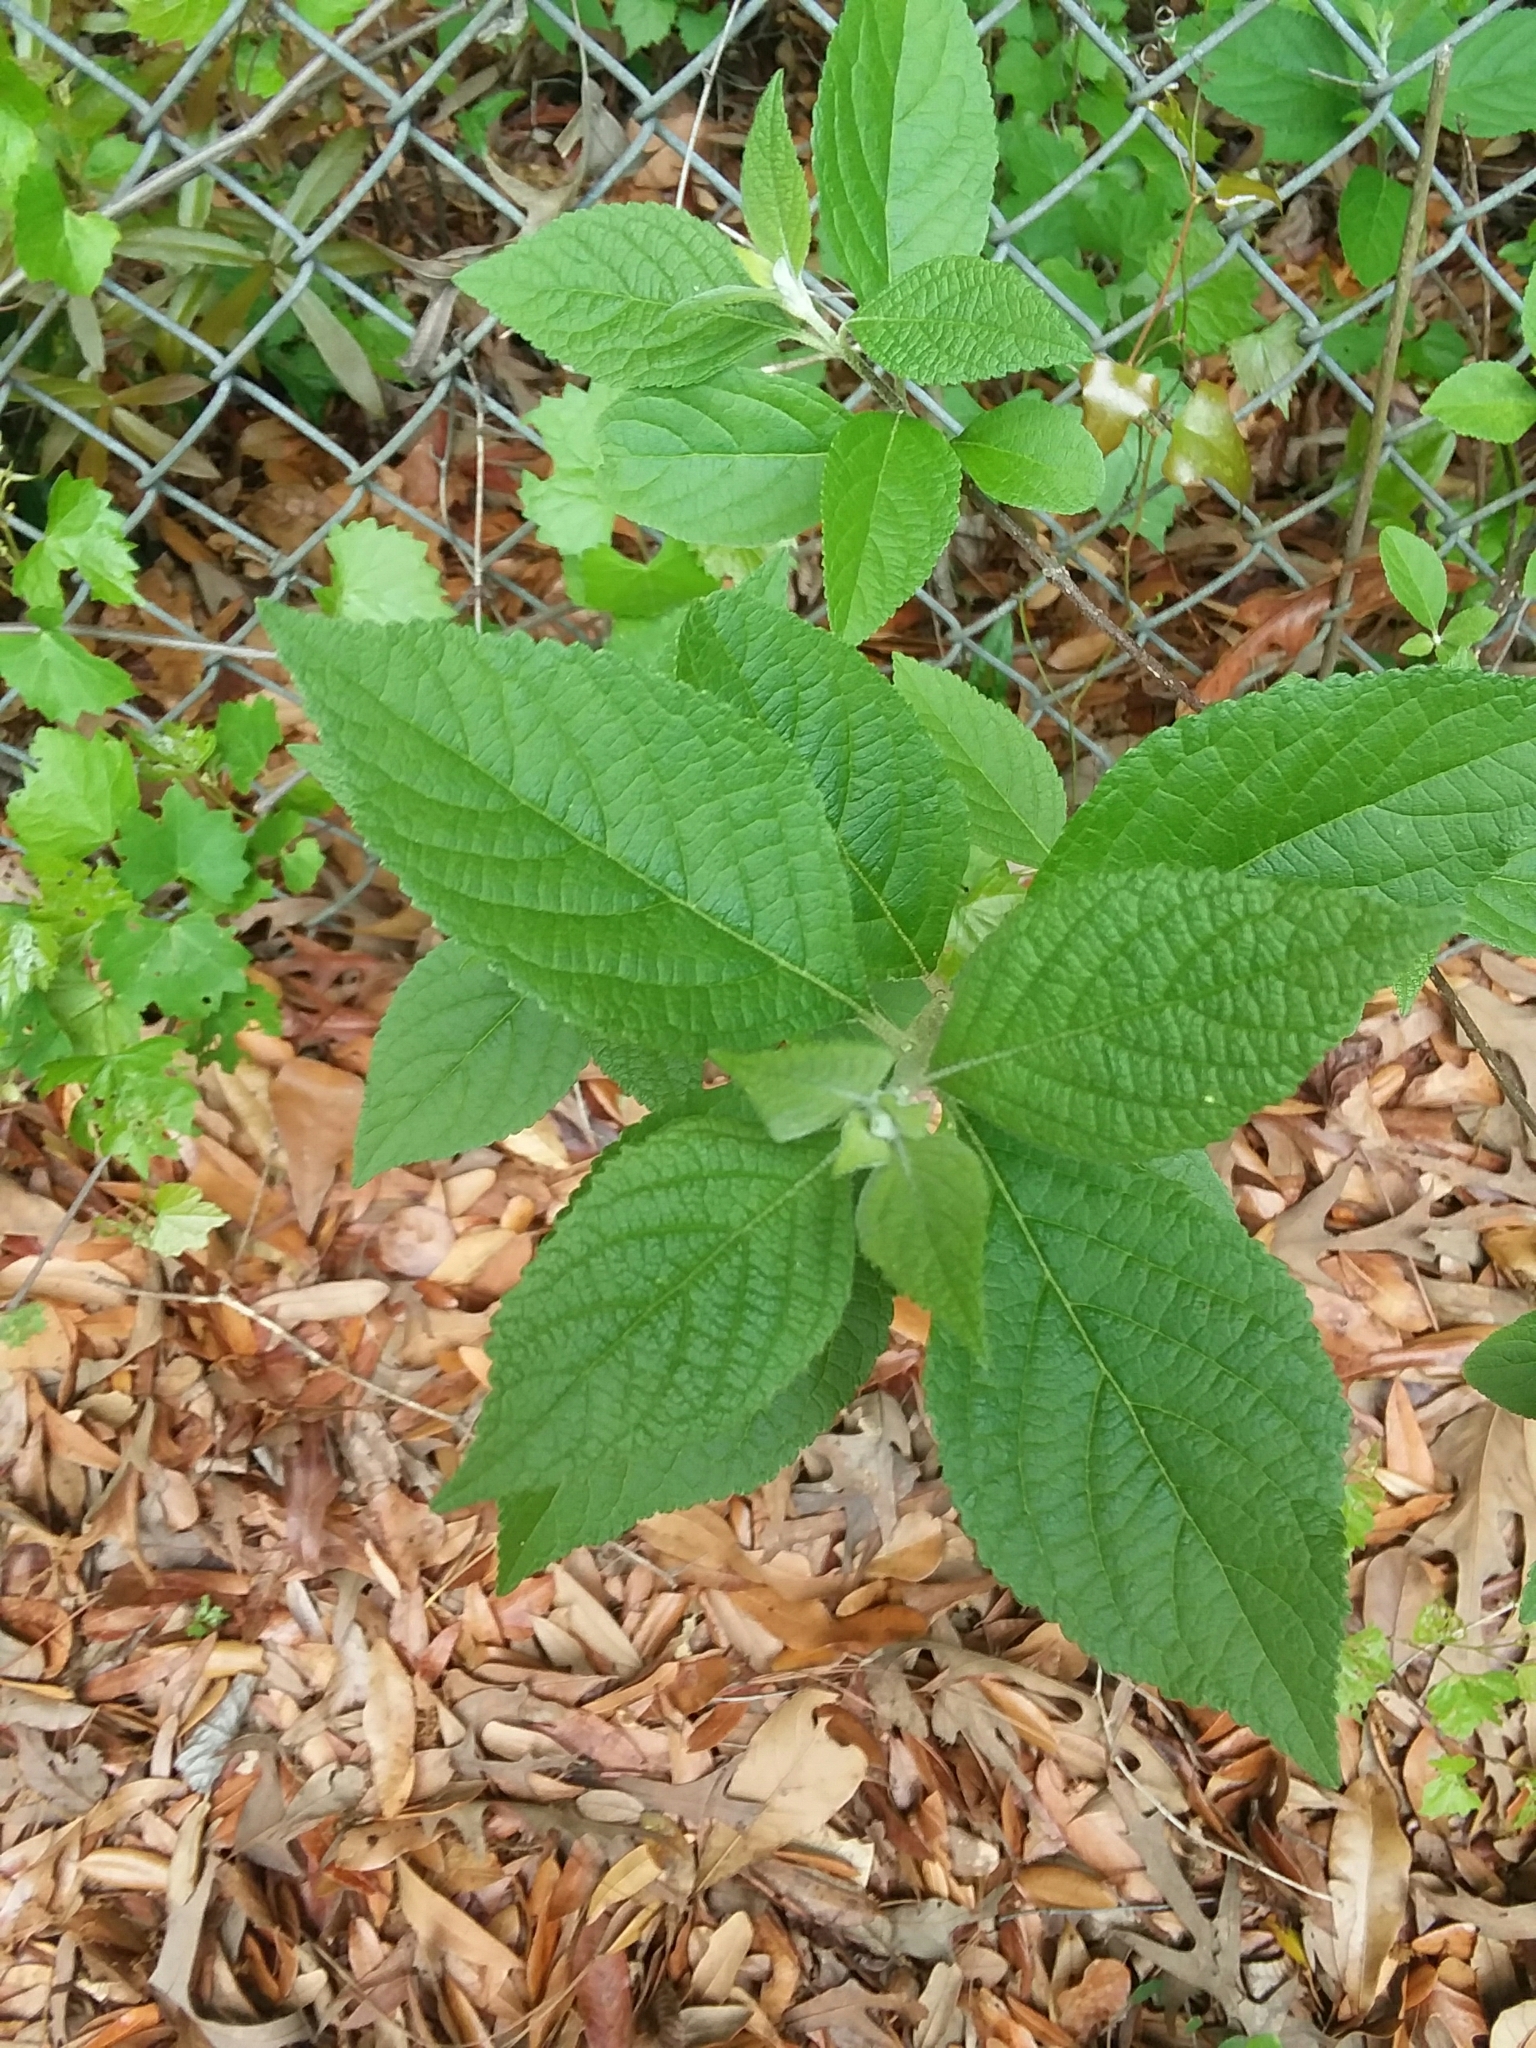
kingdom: Plantae
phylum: Tracheophyta
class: Magnoliopsida
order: Lamiales
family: Lamiaceae
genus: Callicarpa
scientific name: Callicarpa americana
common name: American beautyberry
